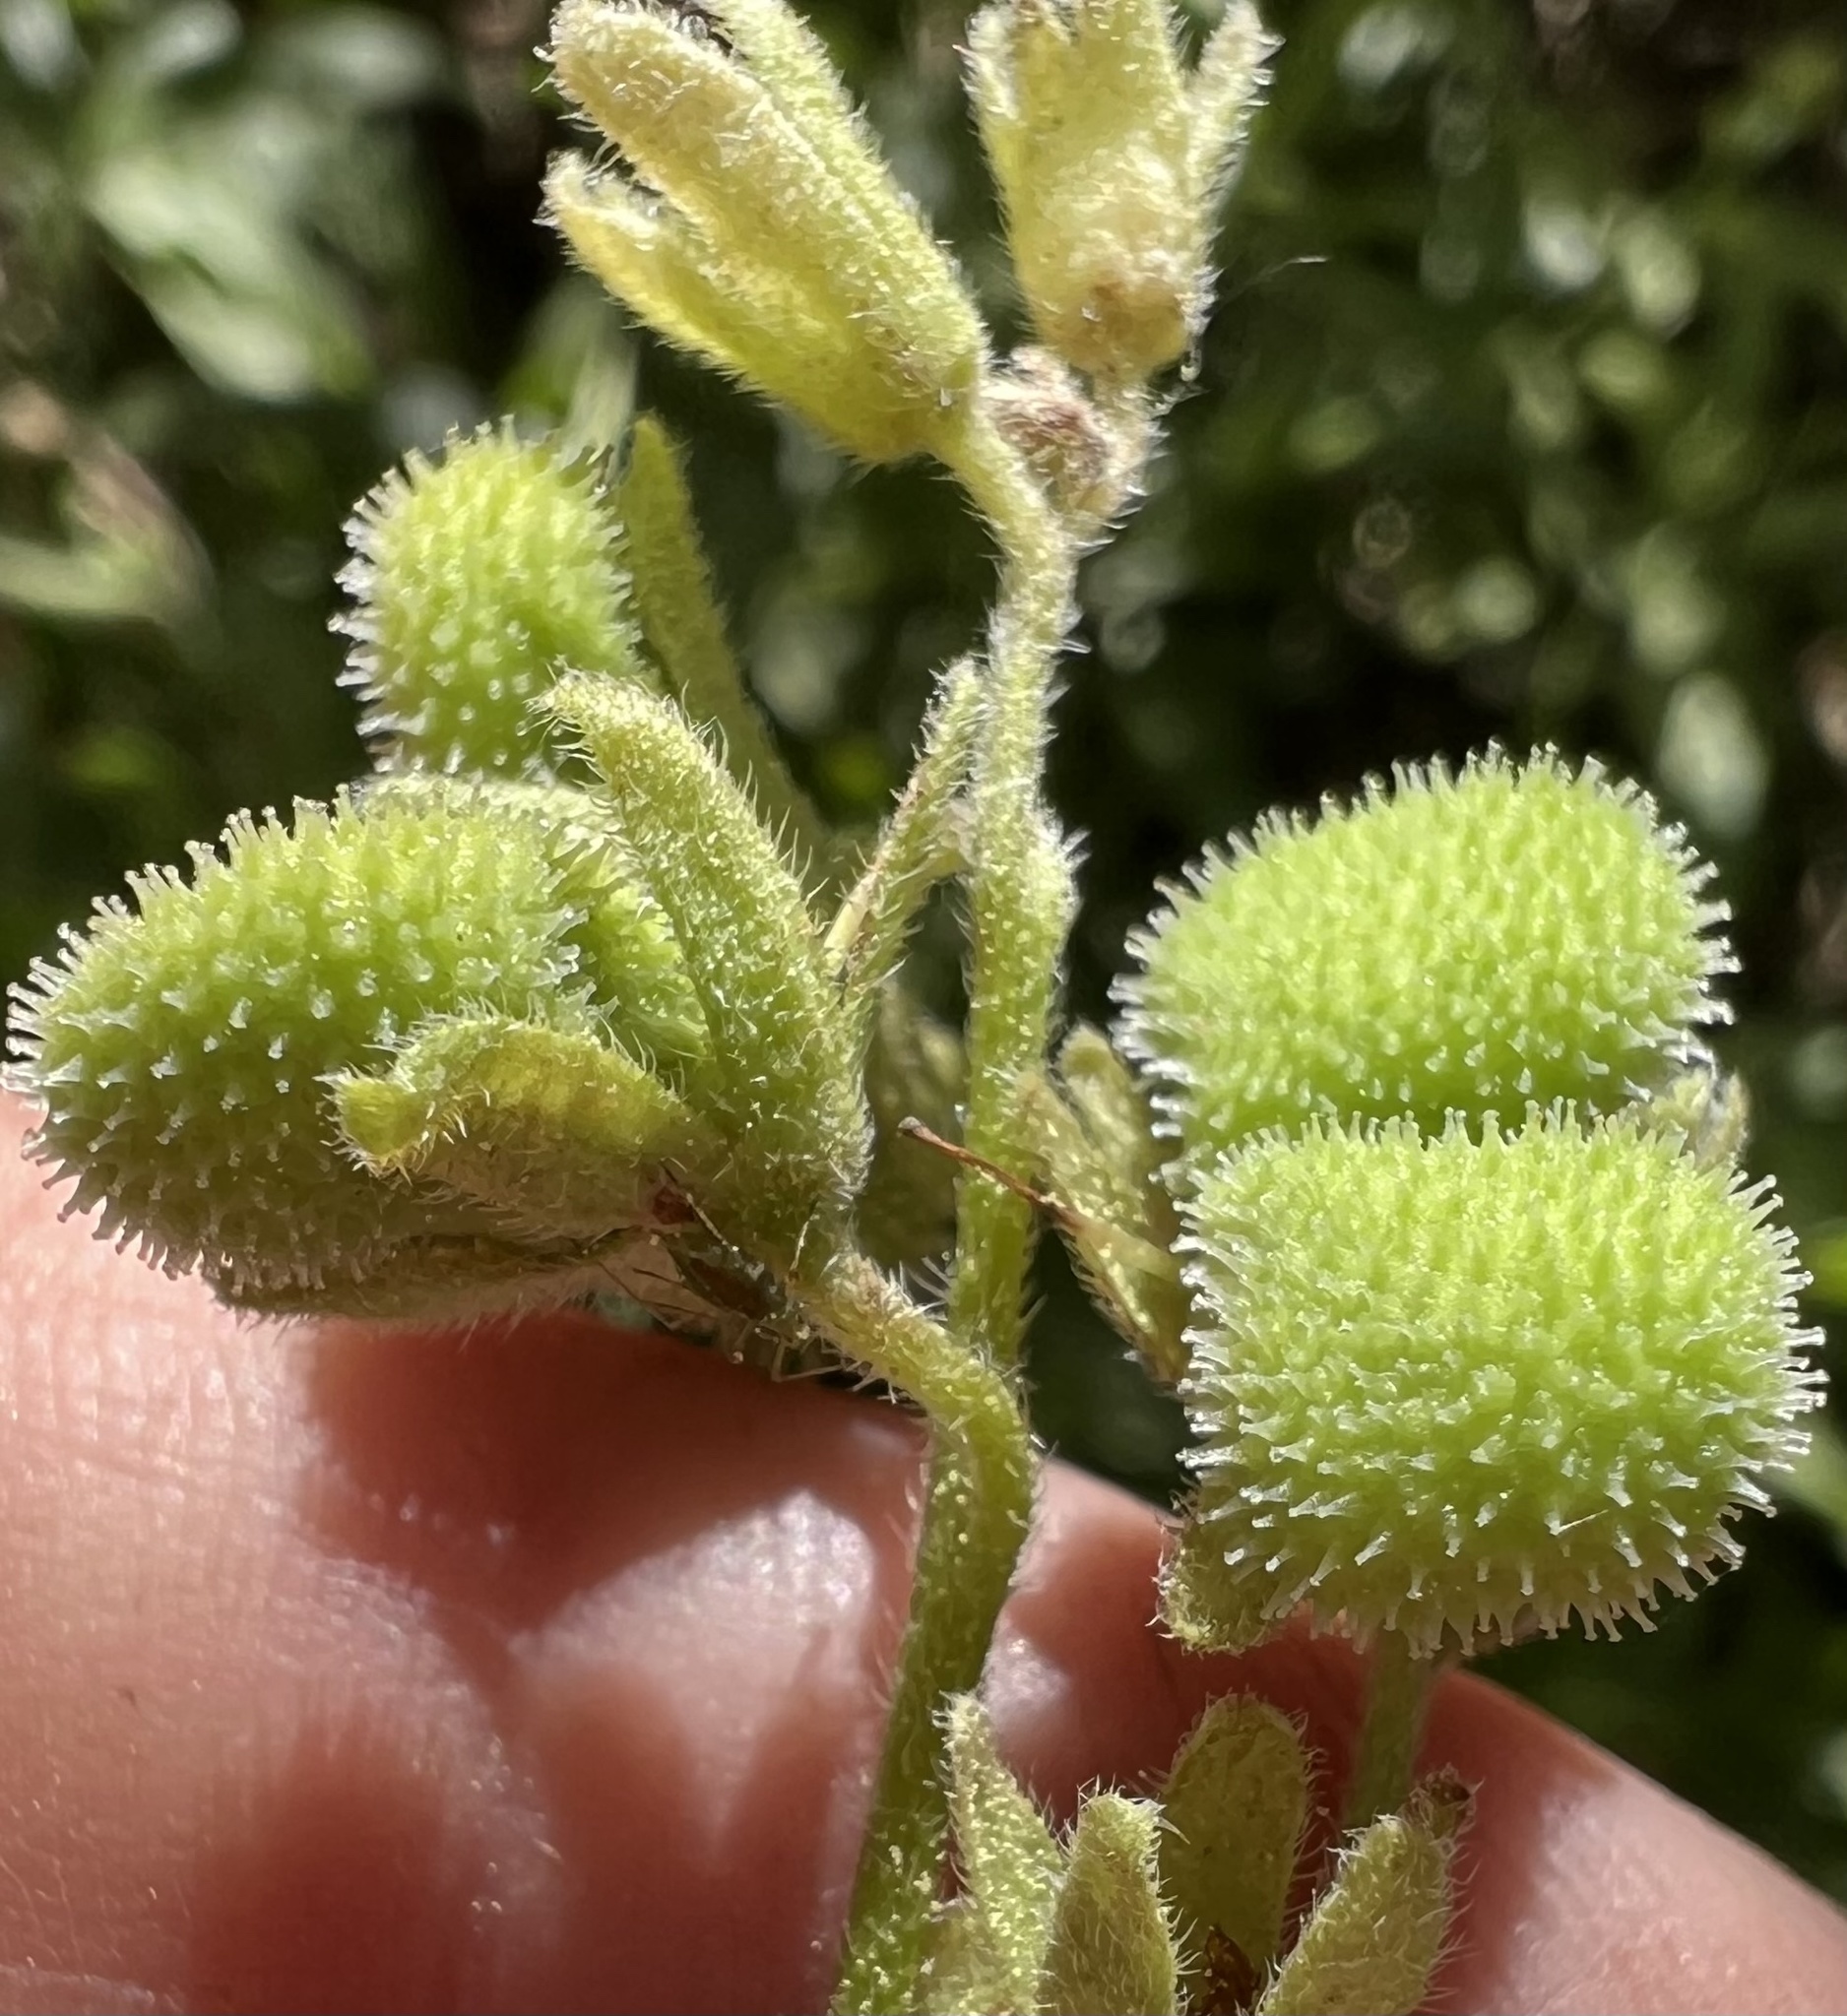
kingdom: Plantae
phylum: Tracheophyta
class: Magnoliopsida
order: Boraginales
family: Boraginaceae
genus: Andersonglossum
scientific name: Andersonglossum occidentale
